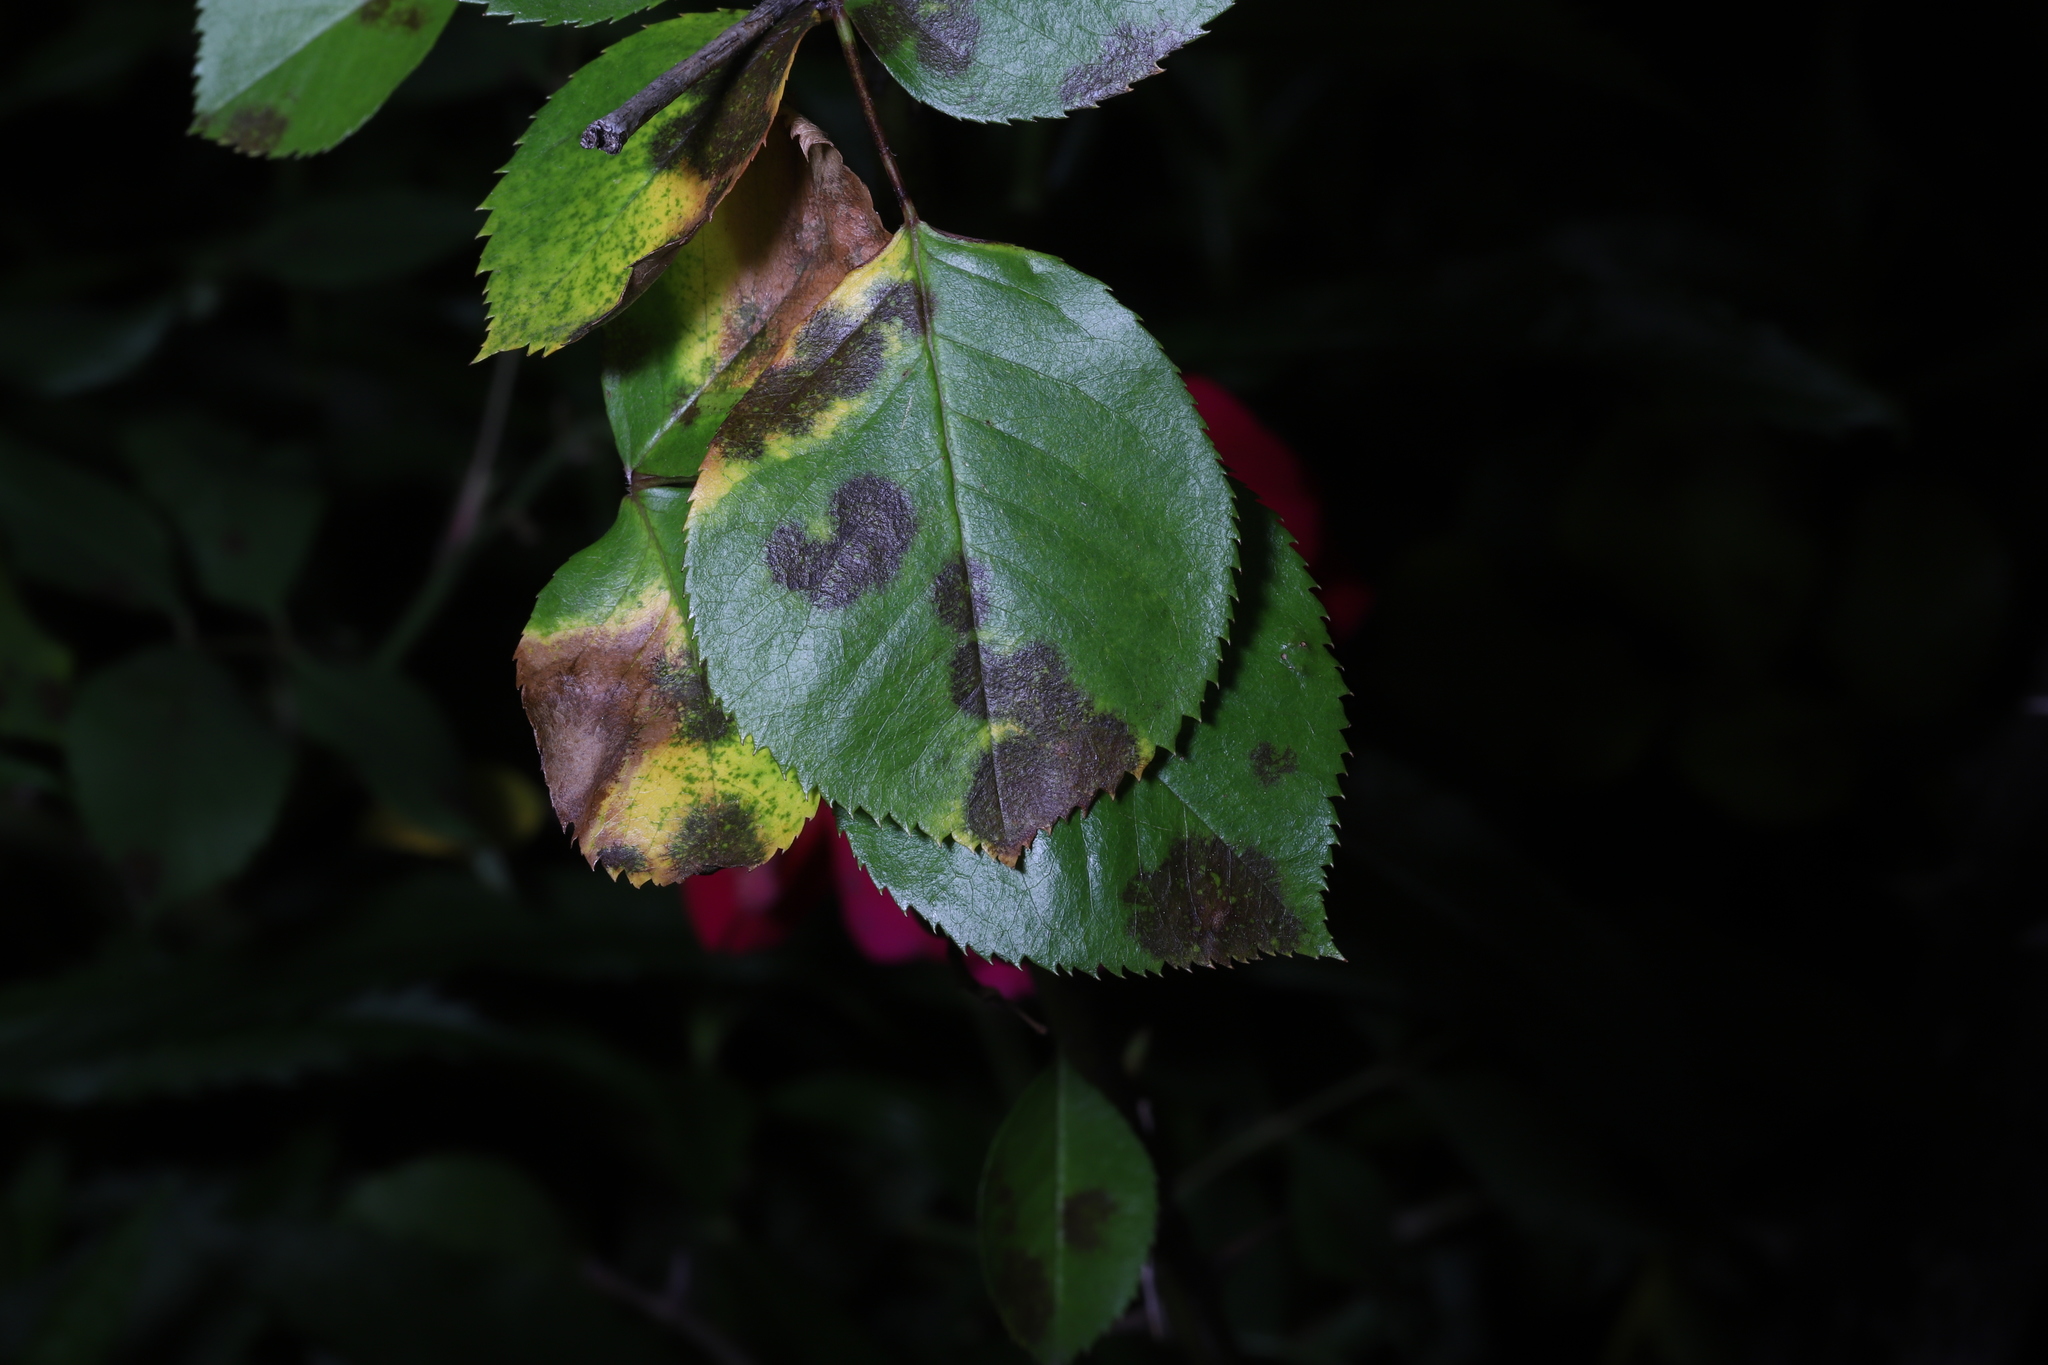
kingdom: Fungi
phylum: Ascomycota
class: Leotiomycetes
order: Helotiales
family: Drepanopezizaceae
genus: Diplocarpon
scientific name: Diplocarpon rosae
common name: Rose black-spot
